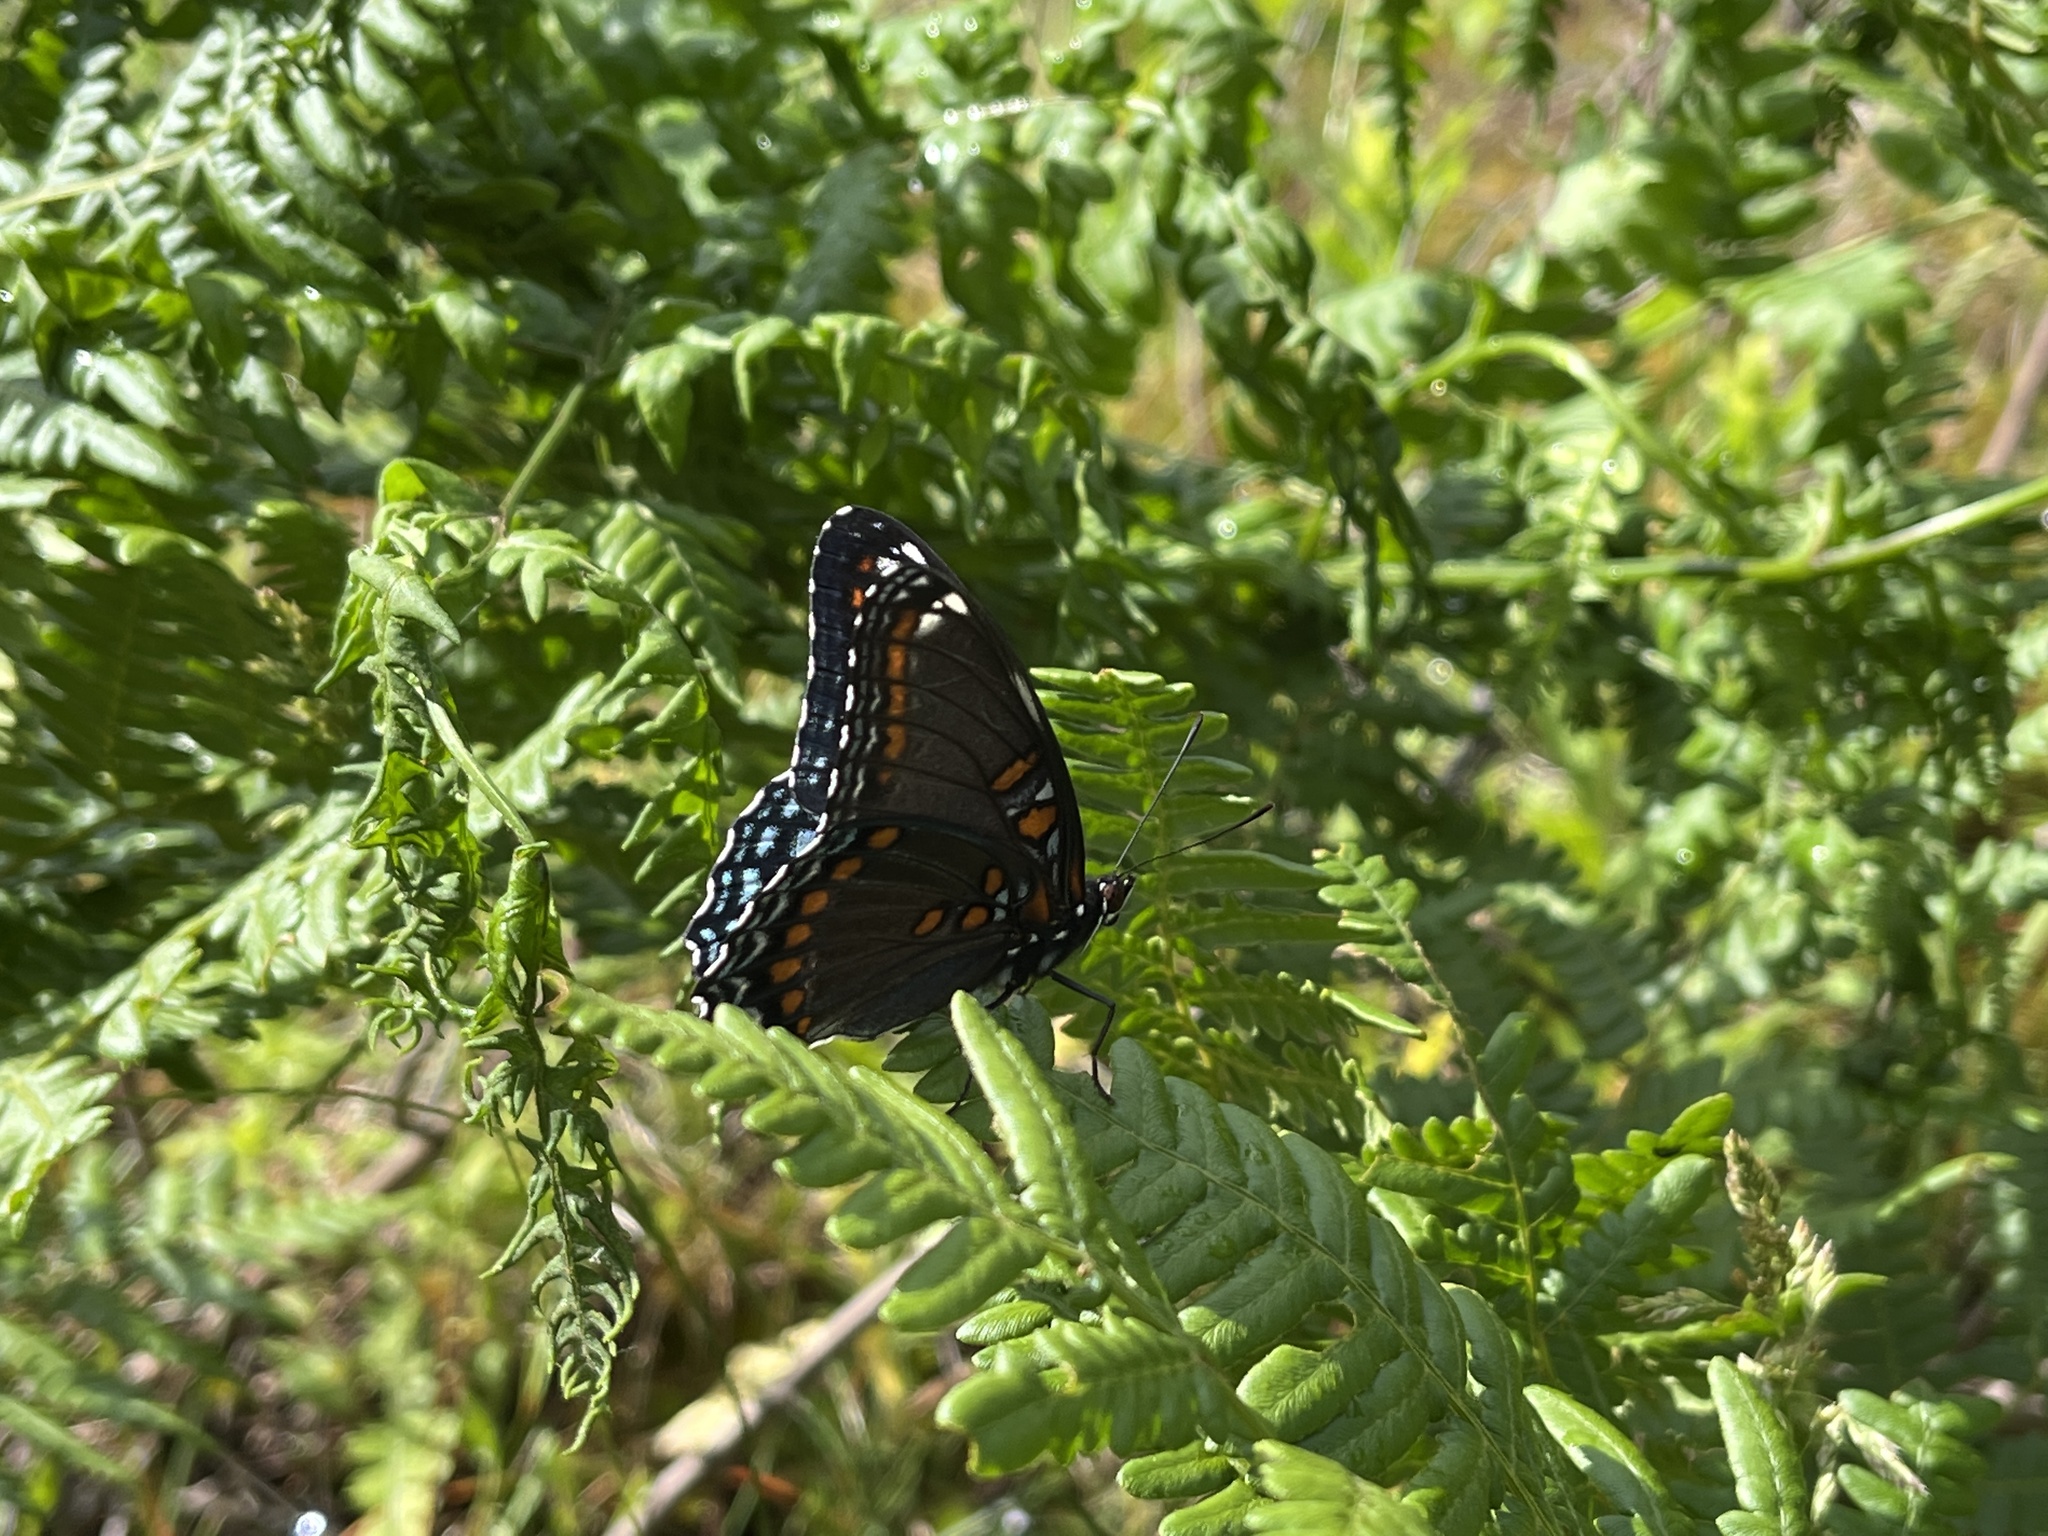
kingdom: Animalia
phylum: Arthropoda
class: Insecta
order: Lepidoptera
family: Nymphalidae
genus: Limenitis
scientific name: Limenitis
